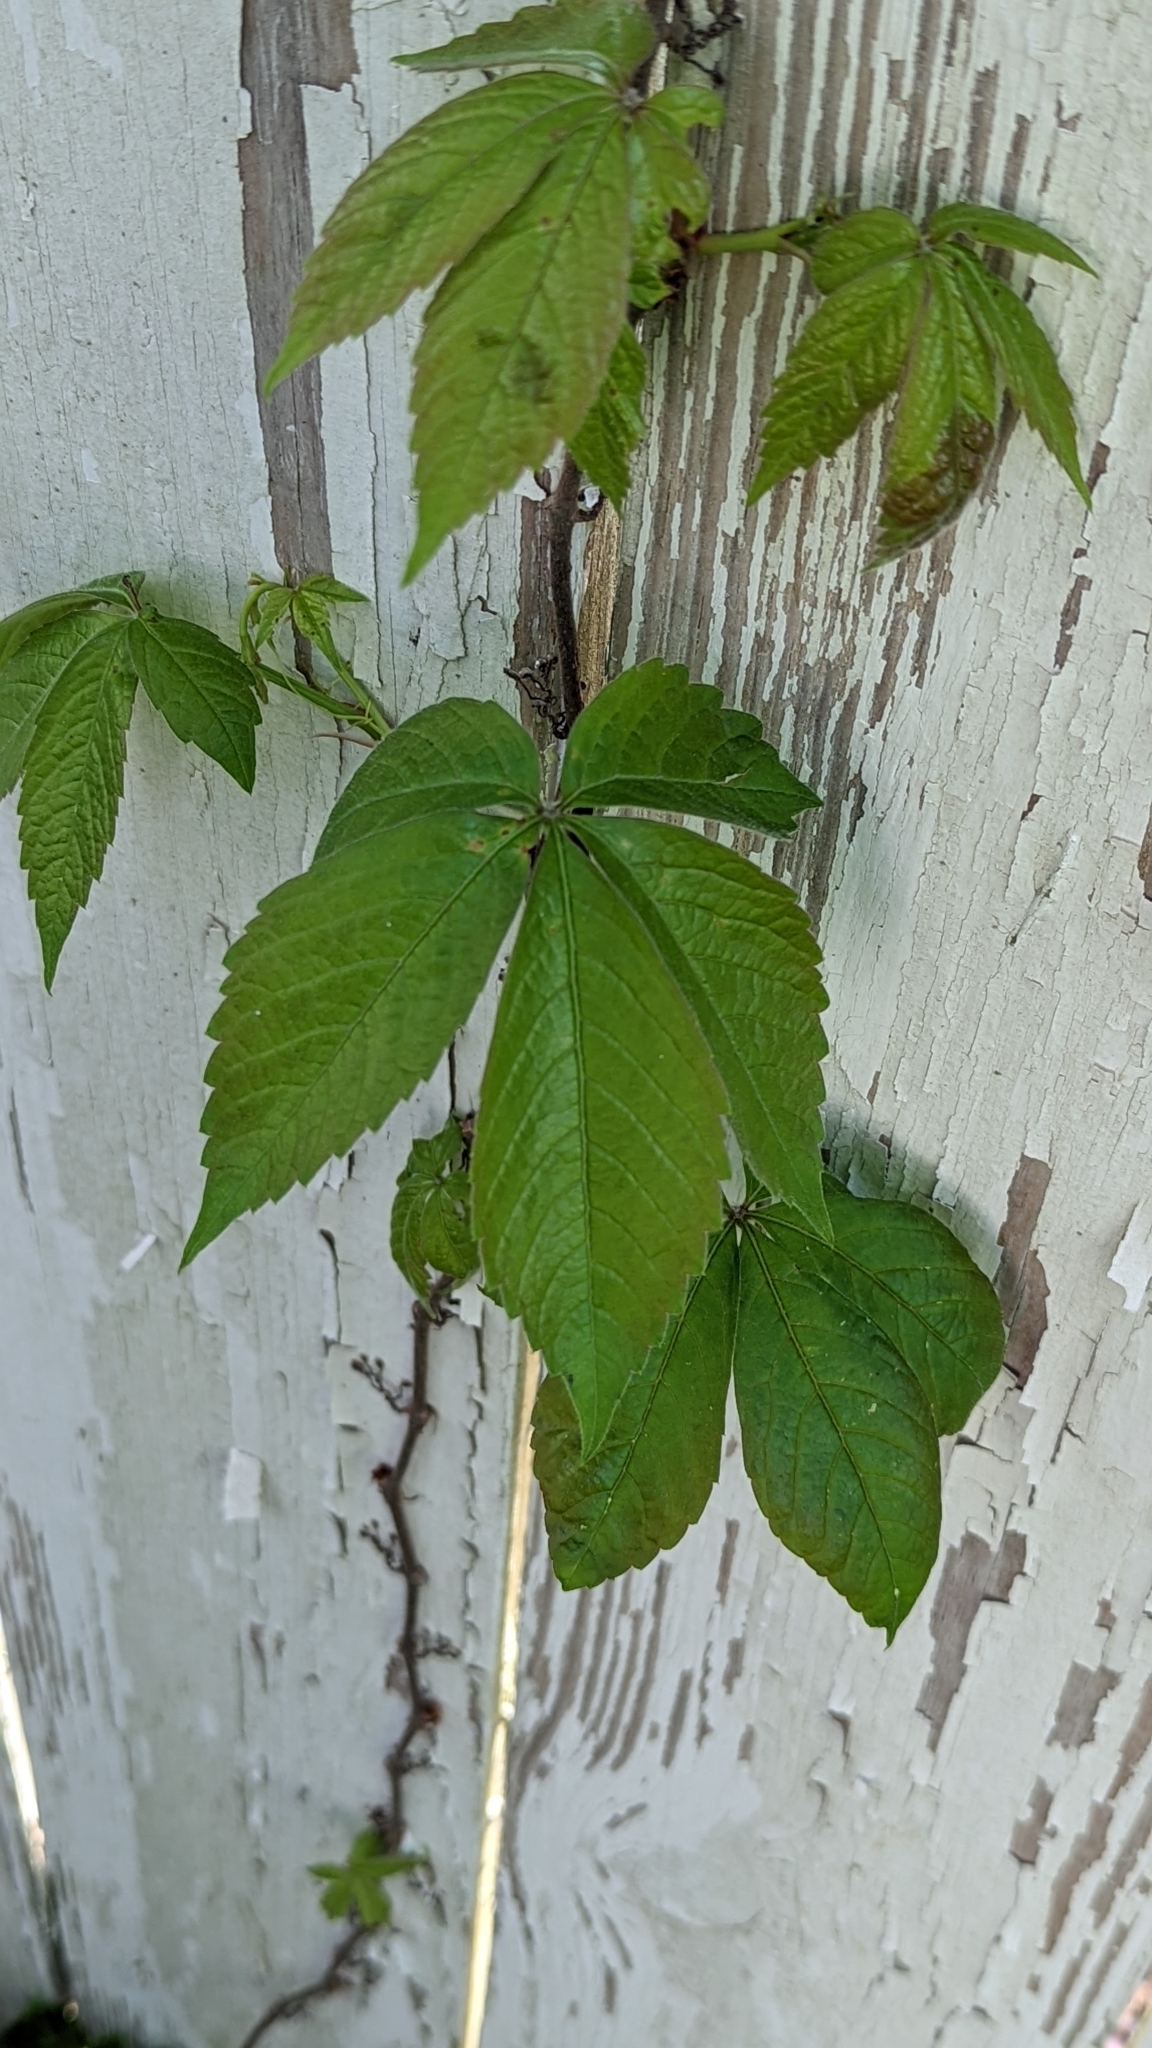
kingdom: Plantae
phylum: Tracheophyta
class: Magnoliopsida
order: Vitales
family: Vitaceae
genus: Parthenocissus
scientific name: Parthenocissus quinquefolia
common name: Virginia-creeper
